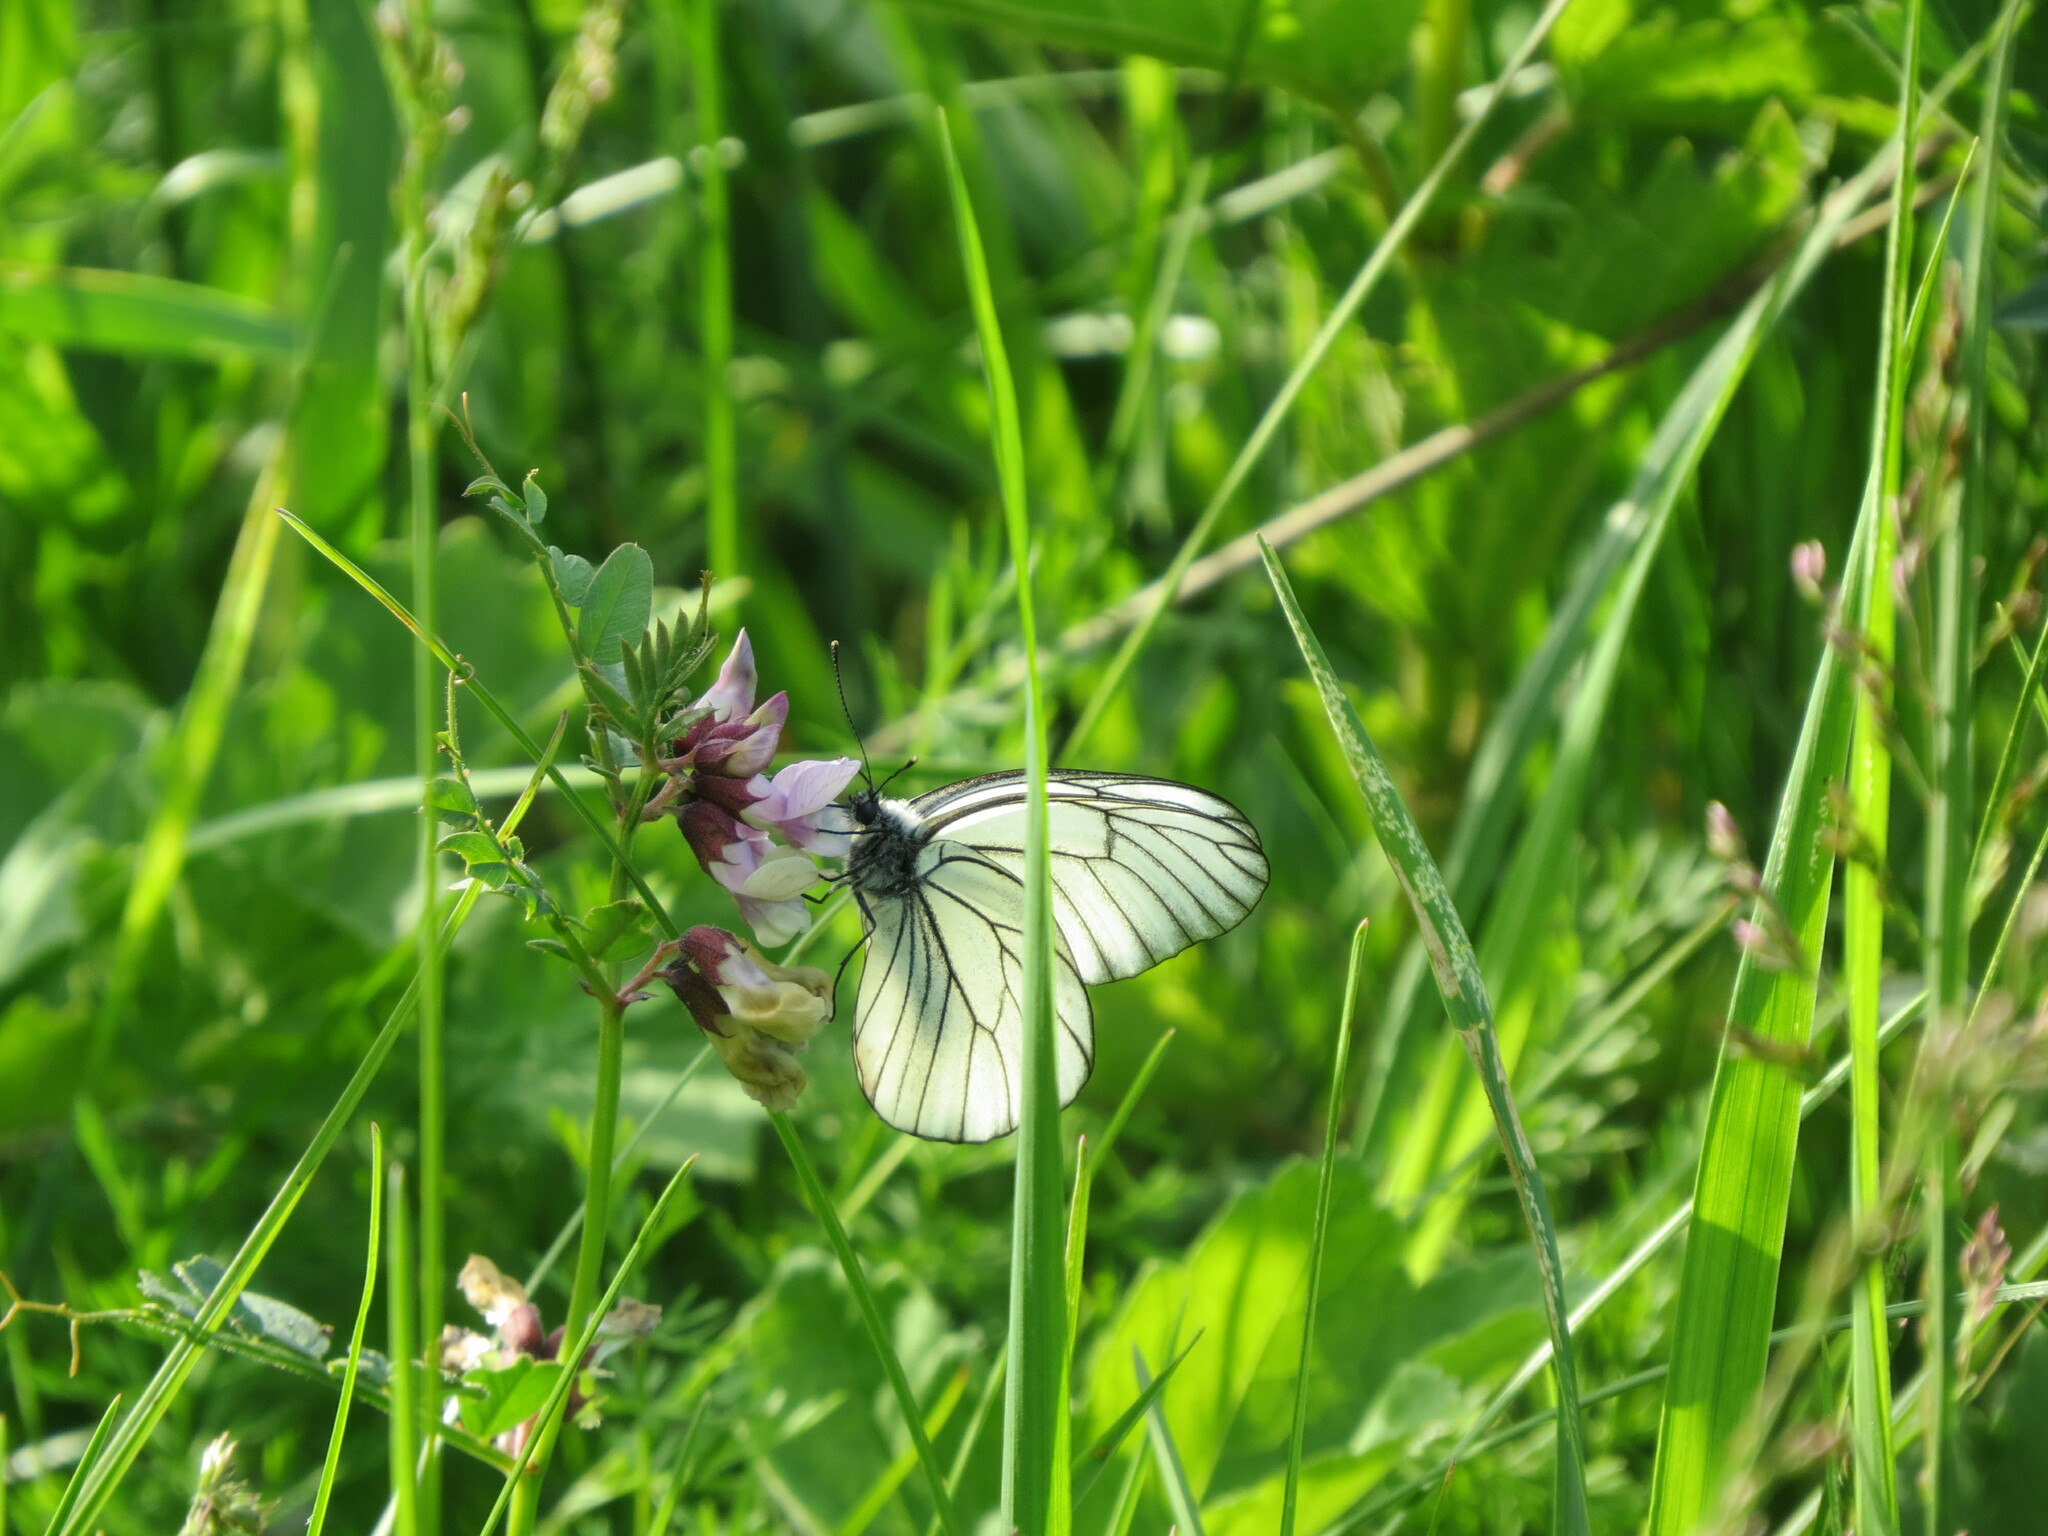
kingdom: Animalia
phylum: Arthropoda
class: Insecta
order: Lepidoptera
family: Pieridae
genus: Aporia
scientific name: Aporia crataegi
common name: Black-veined white
